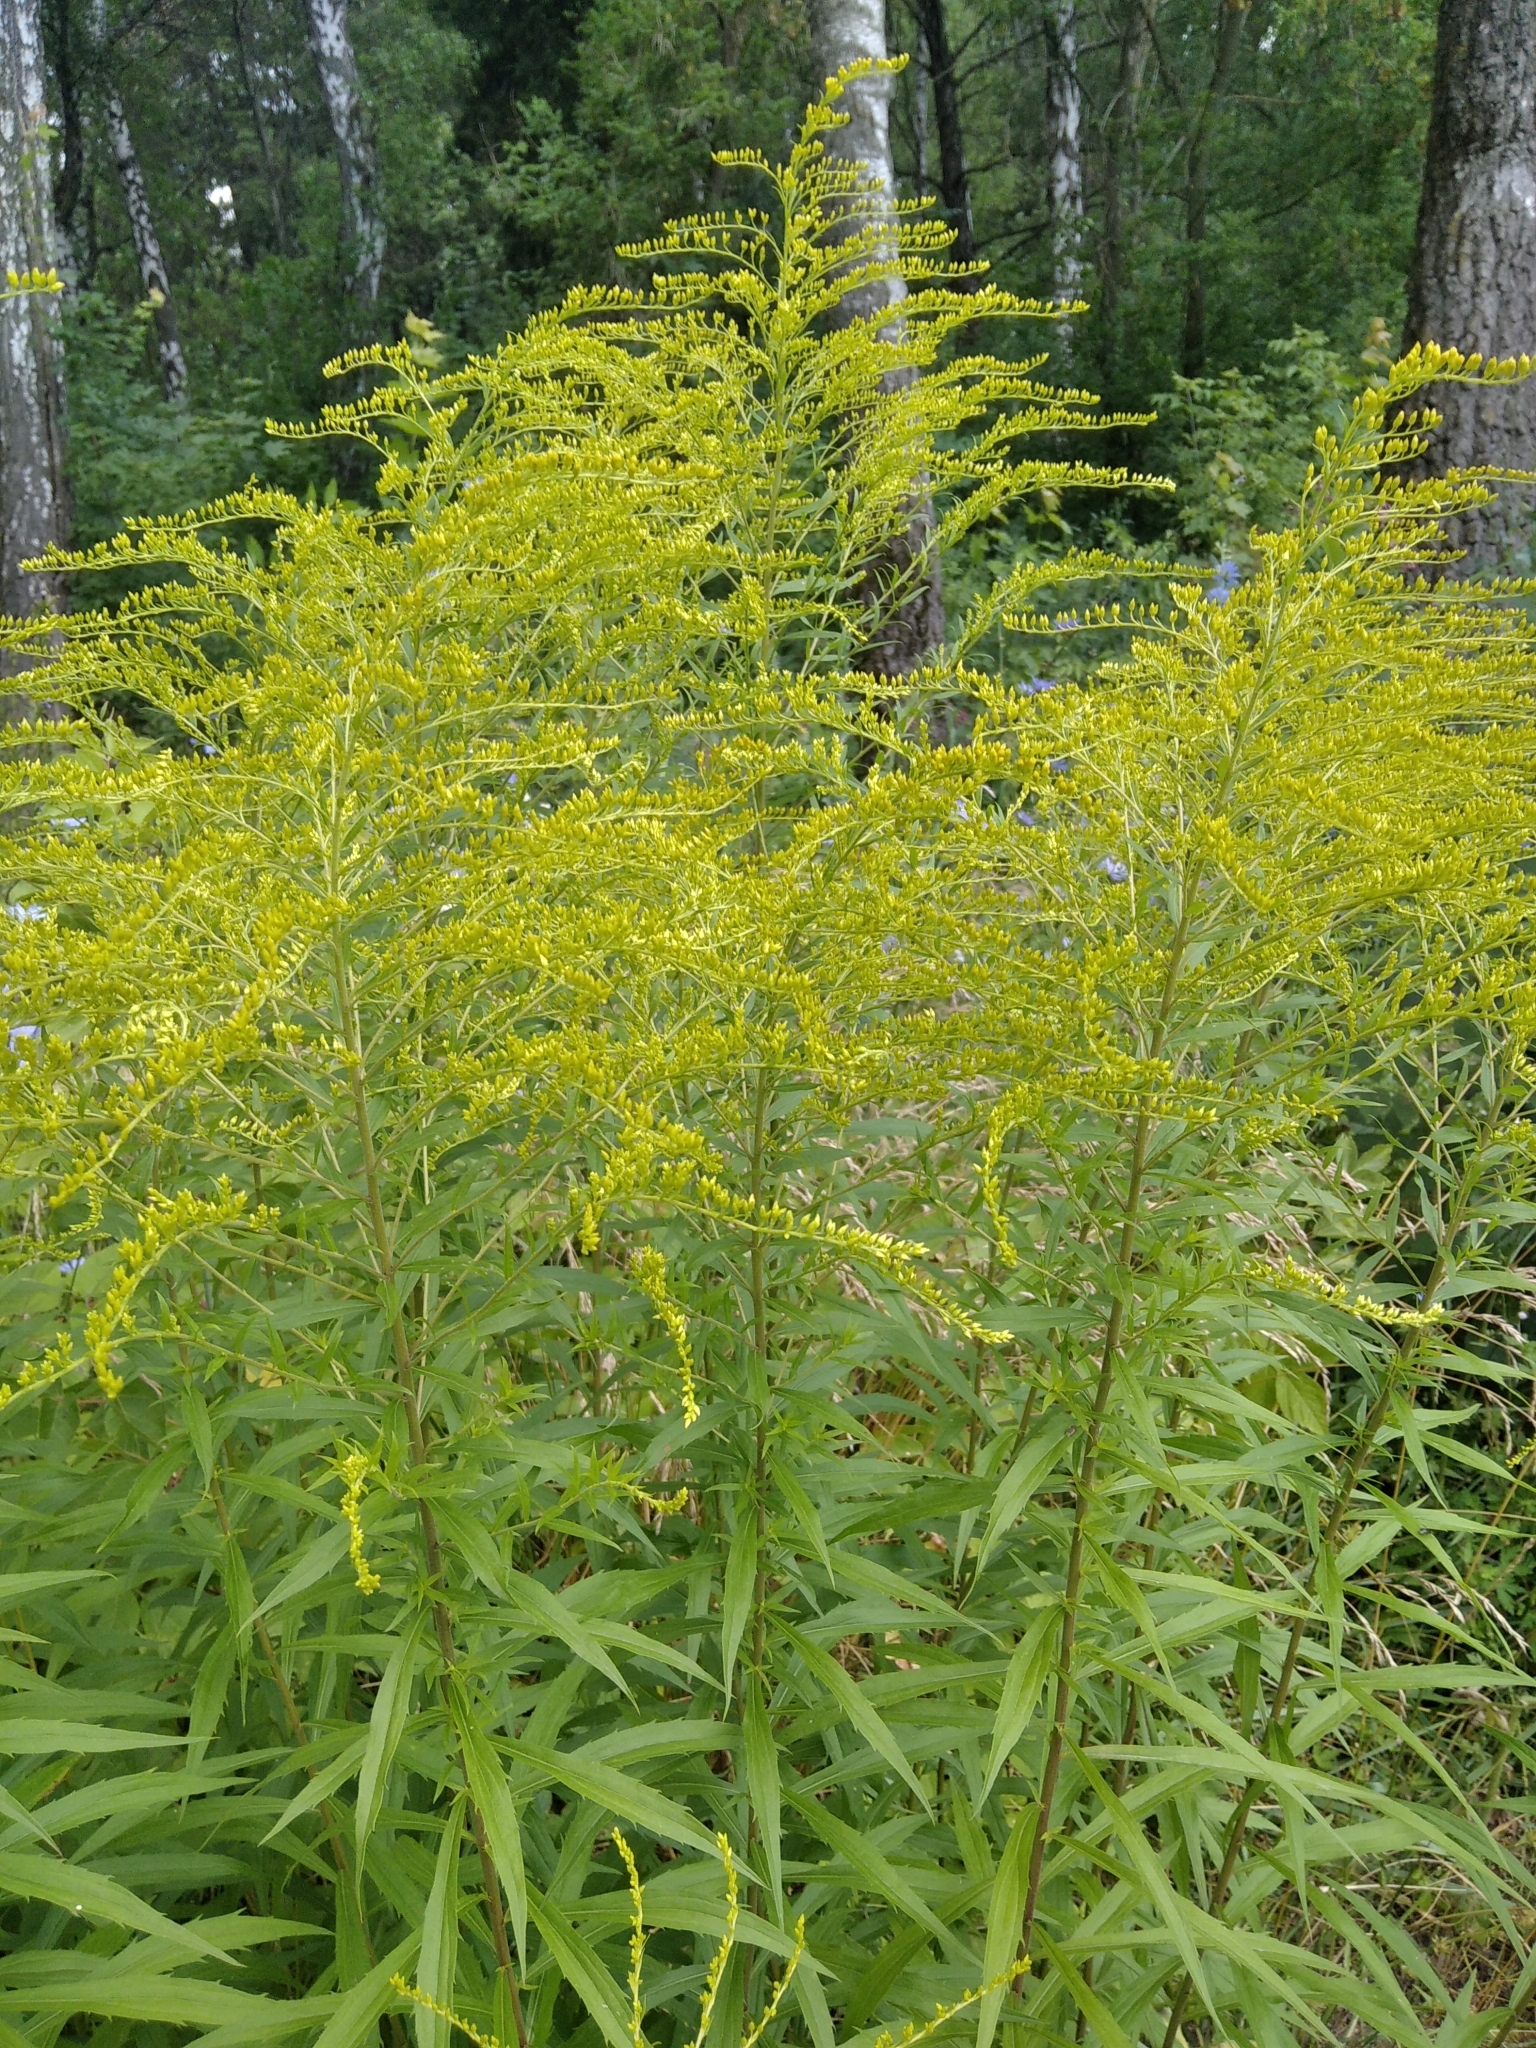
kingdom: Plantae
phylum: Tracheophyta
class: Magnoliopsida
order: Asterales
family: Asteraceae
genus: Solidago
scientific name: Solidago canadensis
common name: Canada goldenrod
